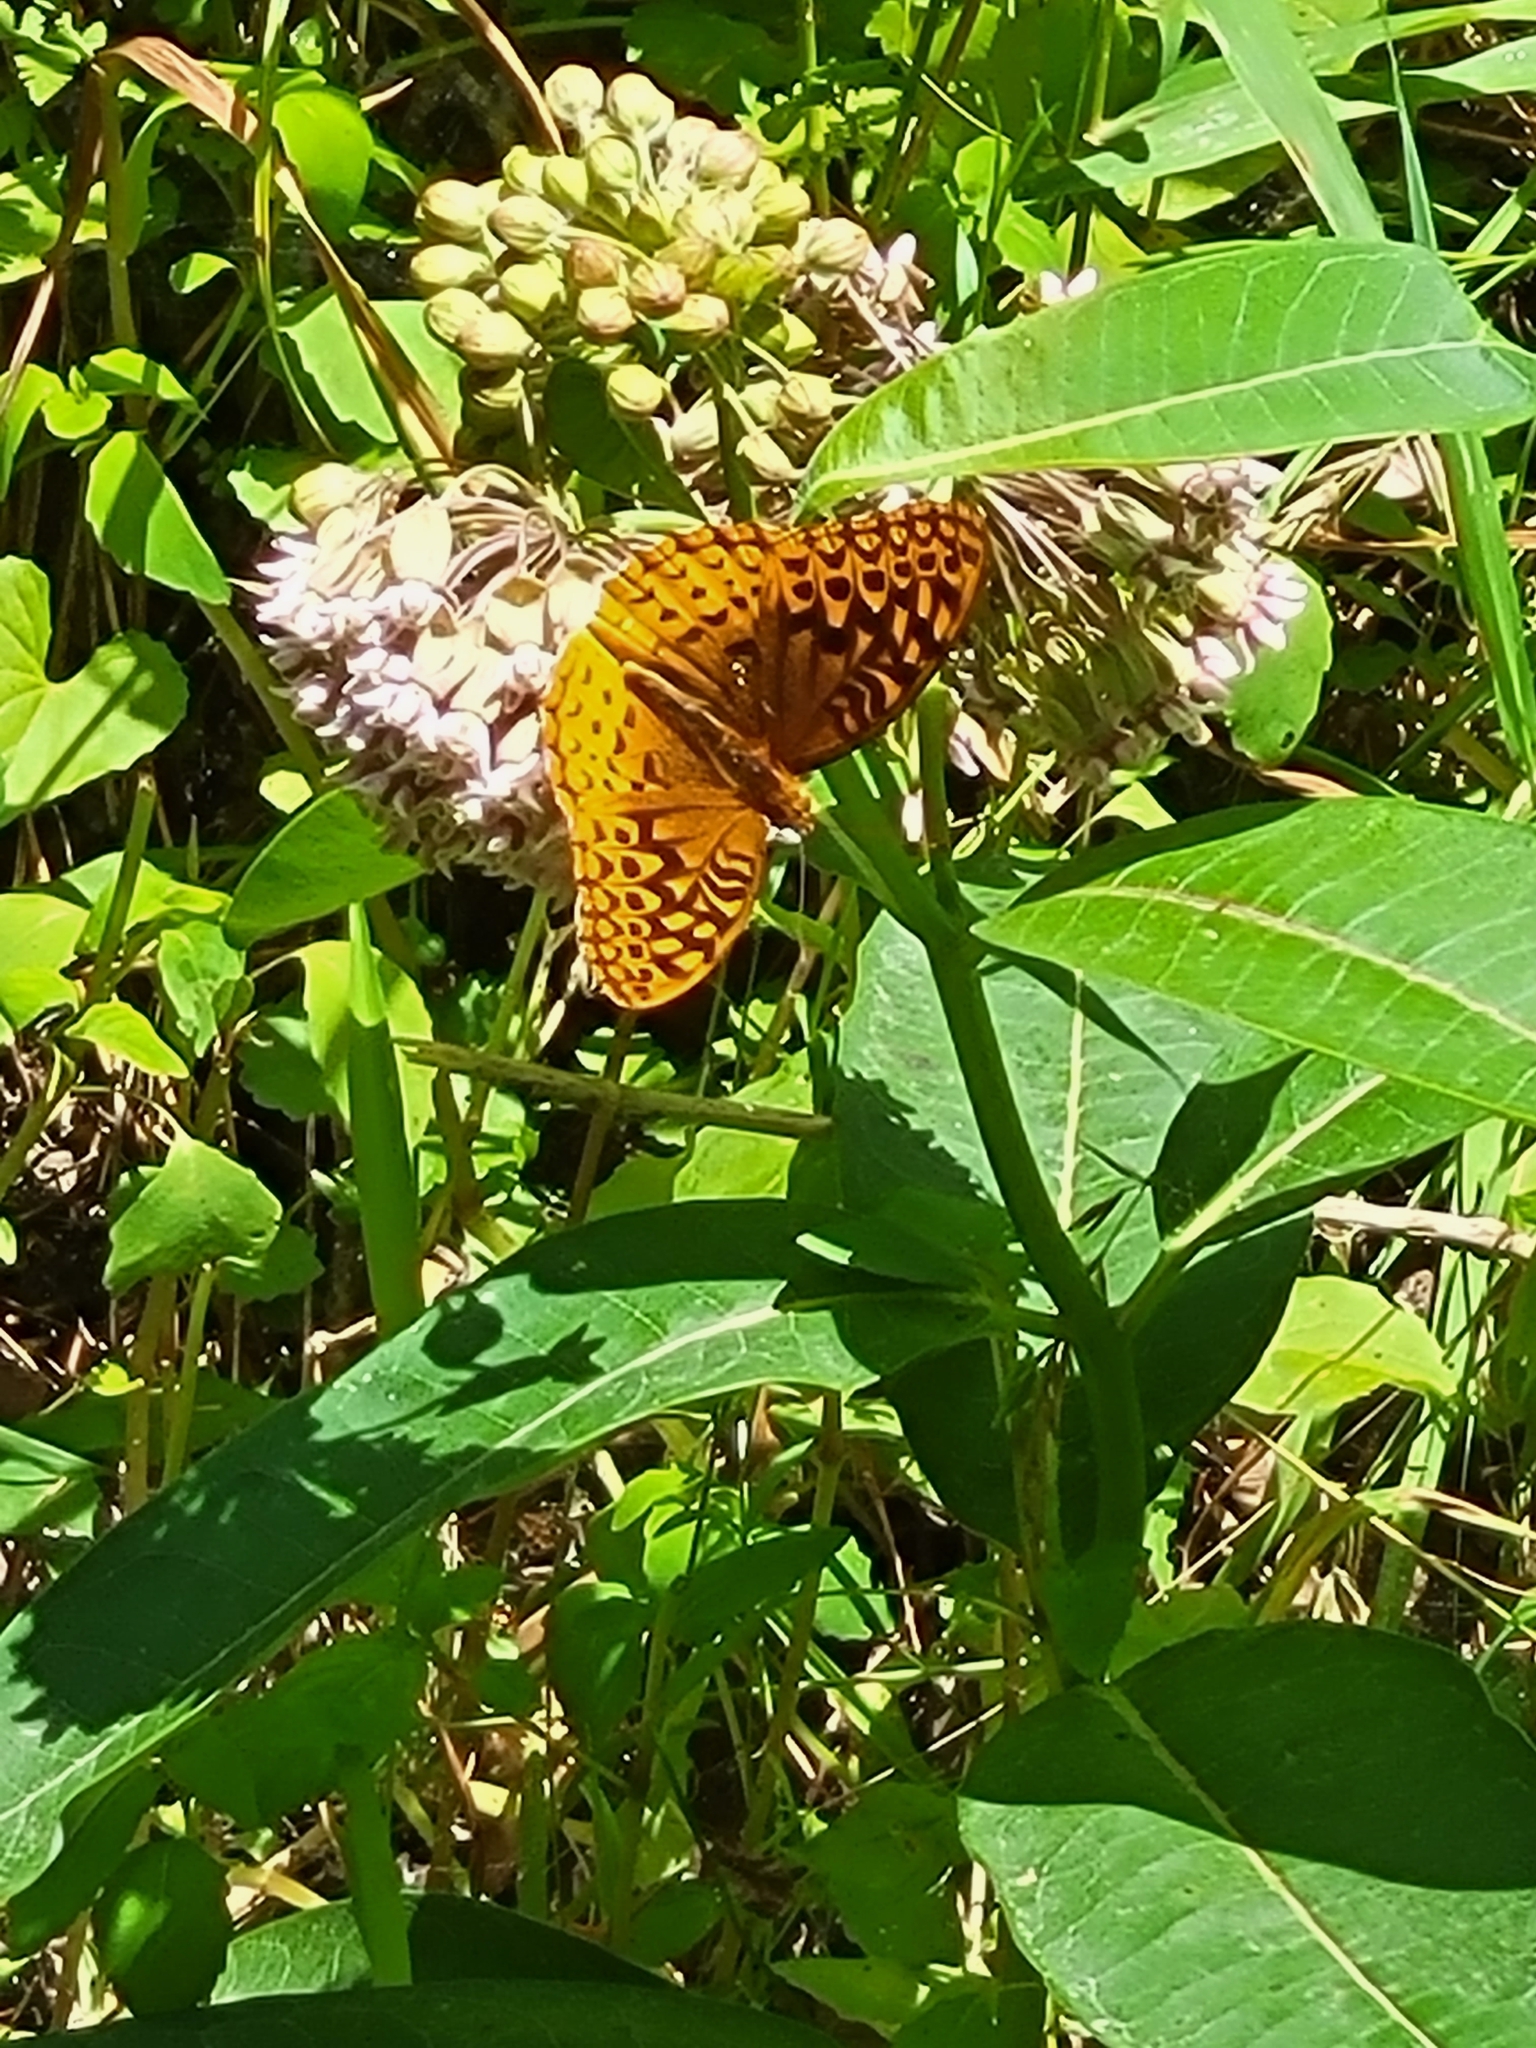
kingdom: Animalia
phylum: Arthropoda
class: Insecta
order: Lepidoptera
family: Nymphalidae
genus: Speyeria
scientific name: Speyeria cybele
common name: Great spangled fritillary
